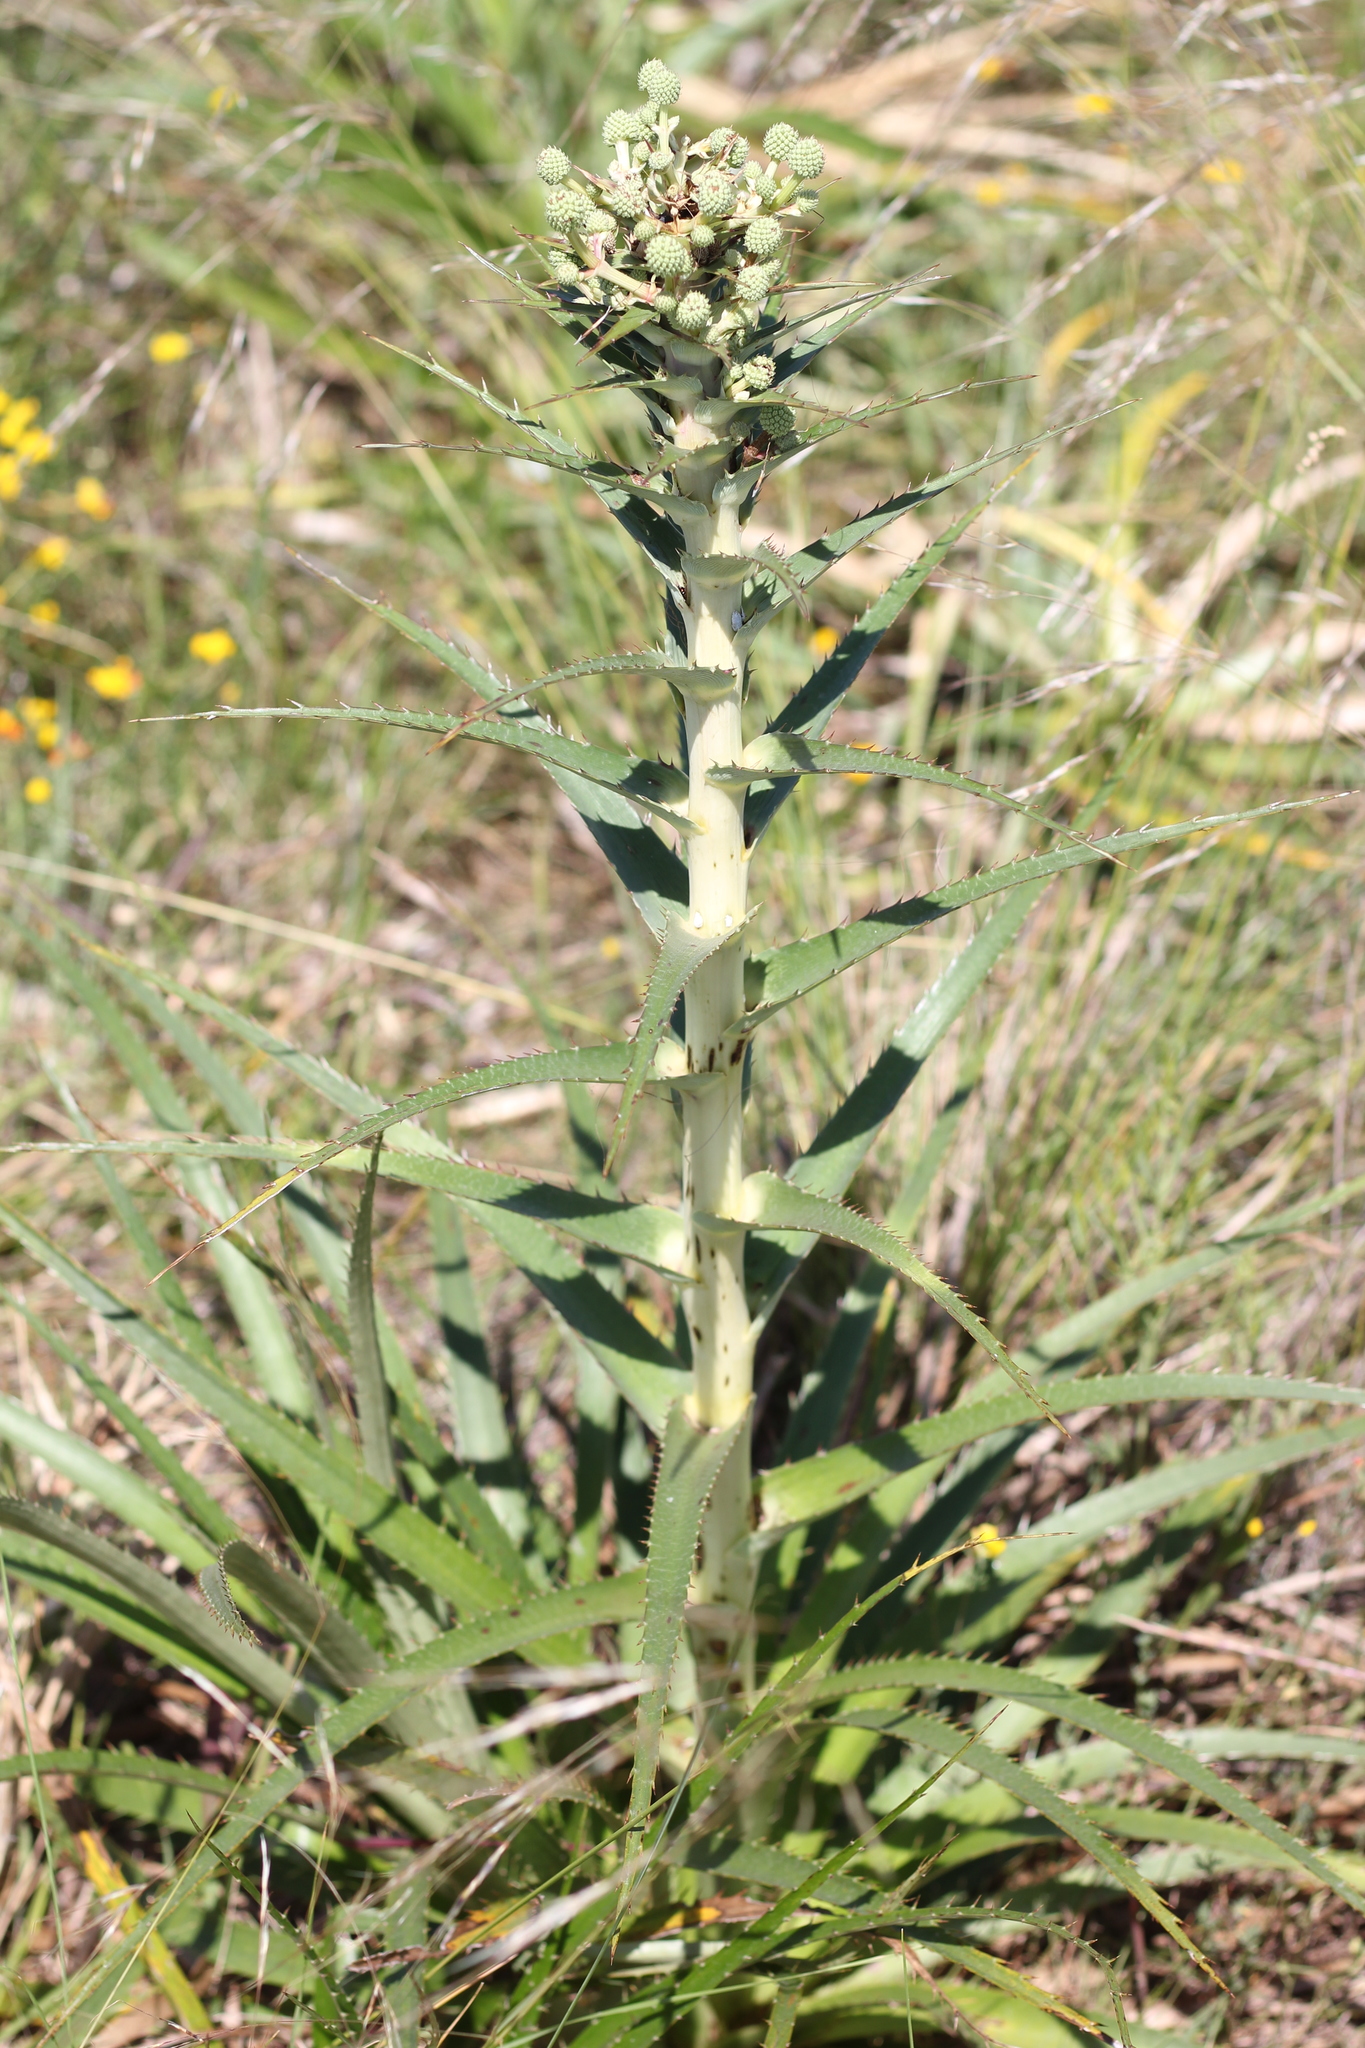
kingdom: Plantae
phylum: Tracheophyta
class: Magnoliopsida
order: Apiales
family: Apiaceae
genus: Eryngium
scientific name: Eryngium horridum
